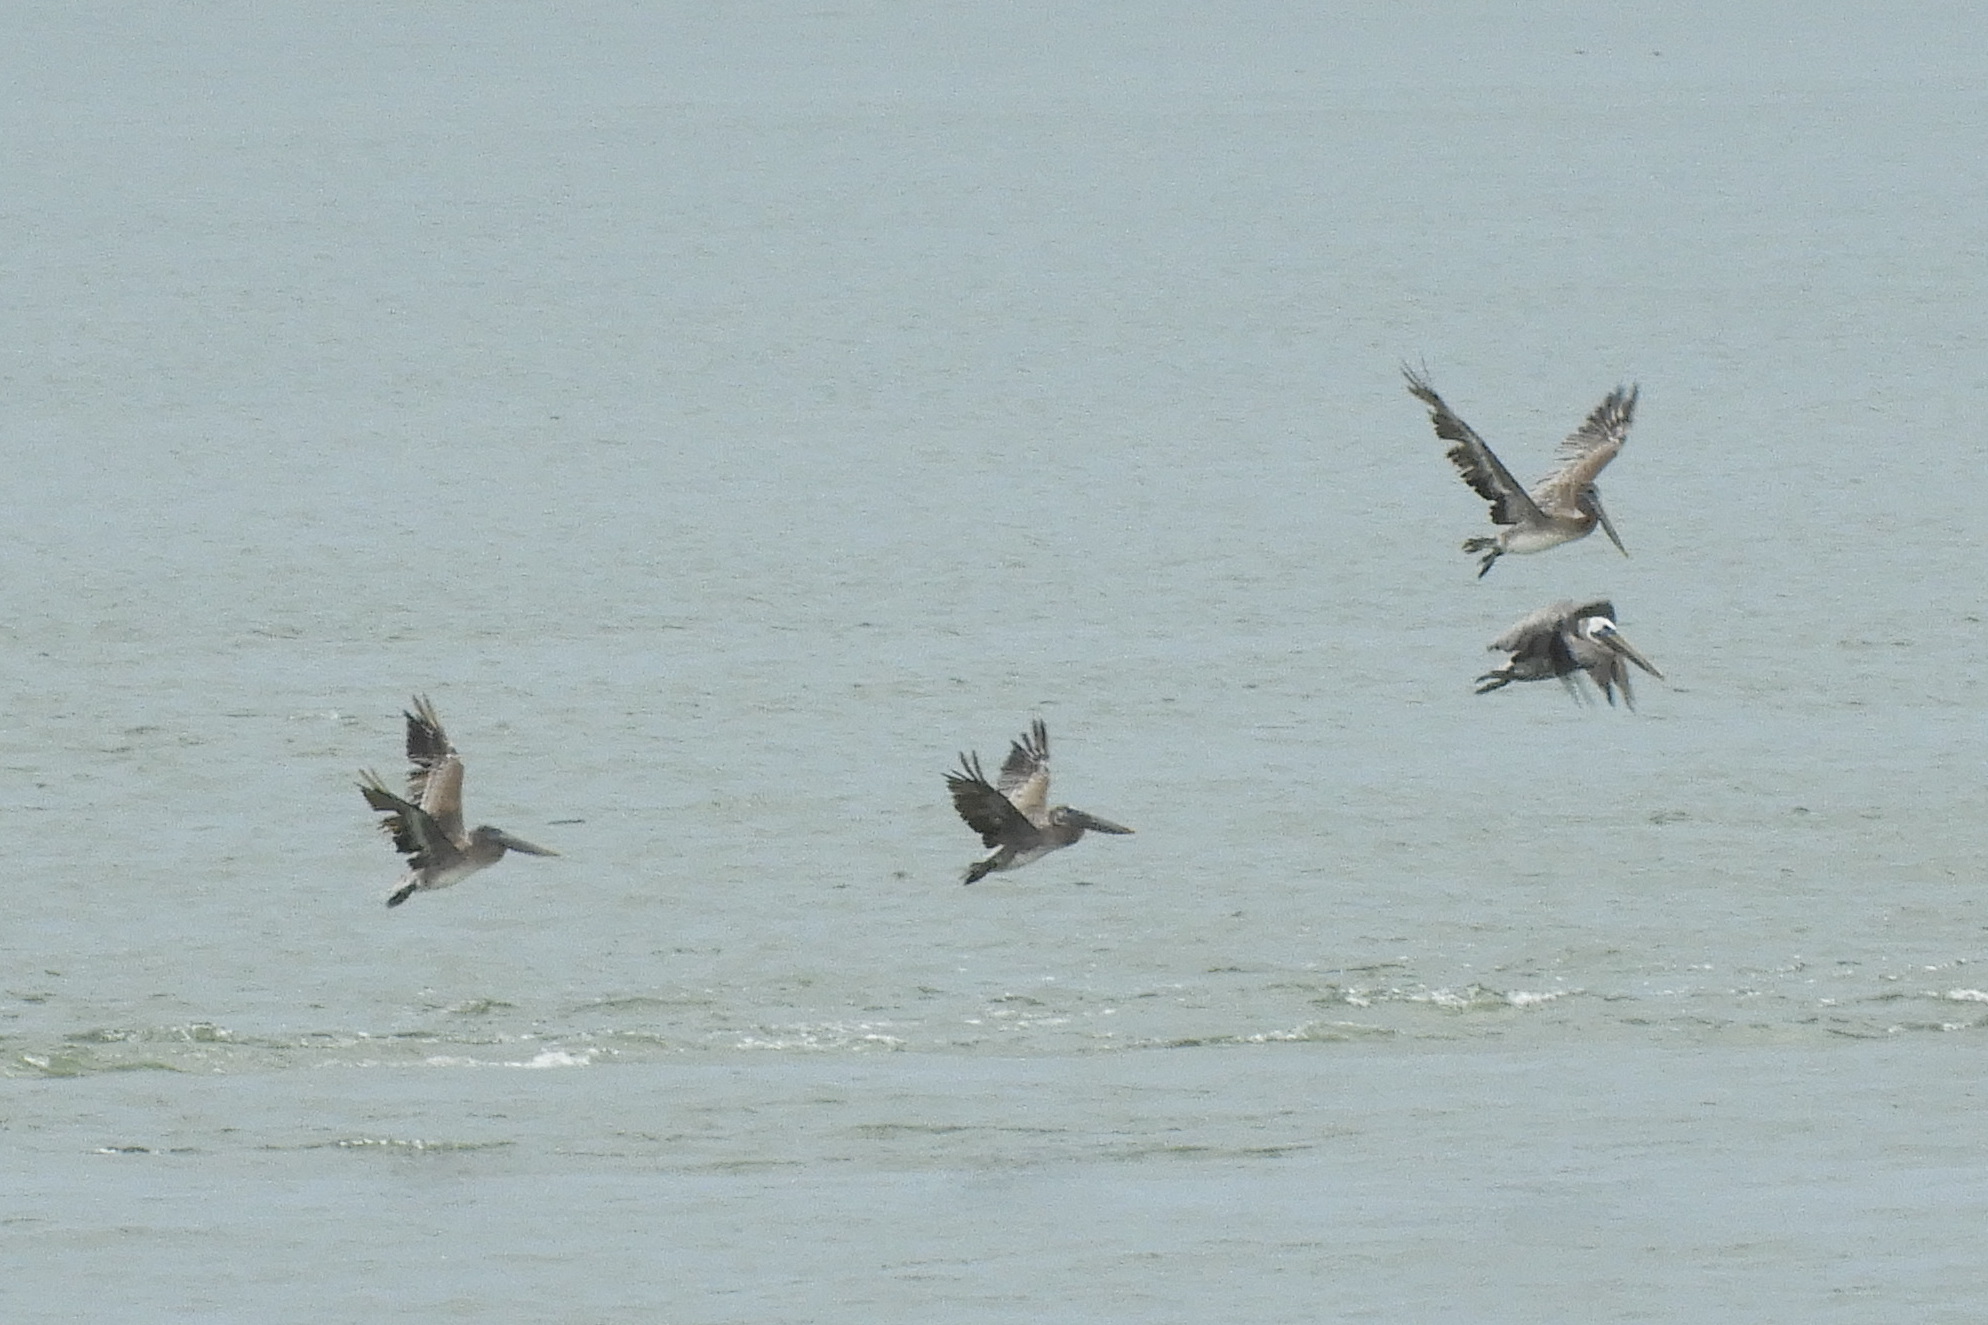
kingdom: Animalia
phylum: Chordata
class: Aves
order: Pelecaniformes
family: Pelecanidae
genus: Pelecanus
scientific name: Pelecanus occidentalis
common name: Brown pelican
